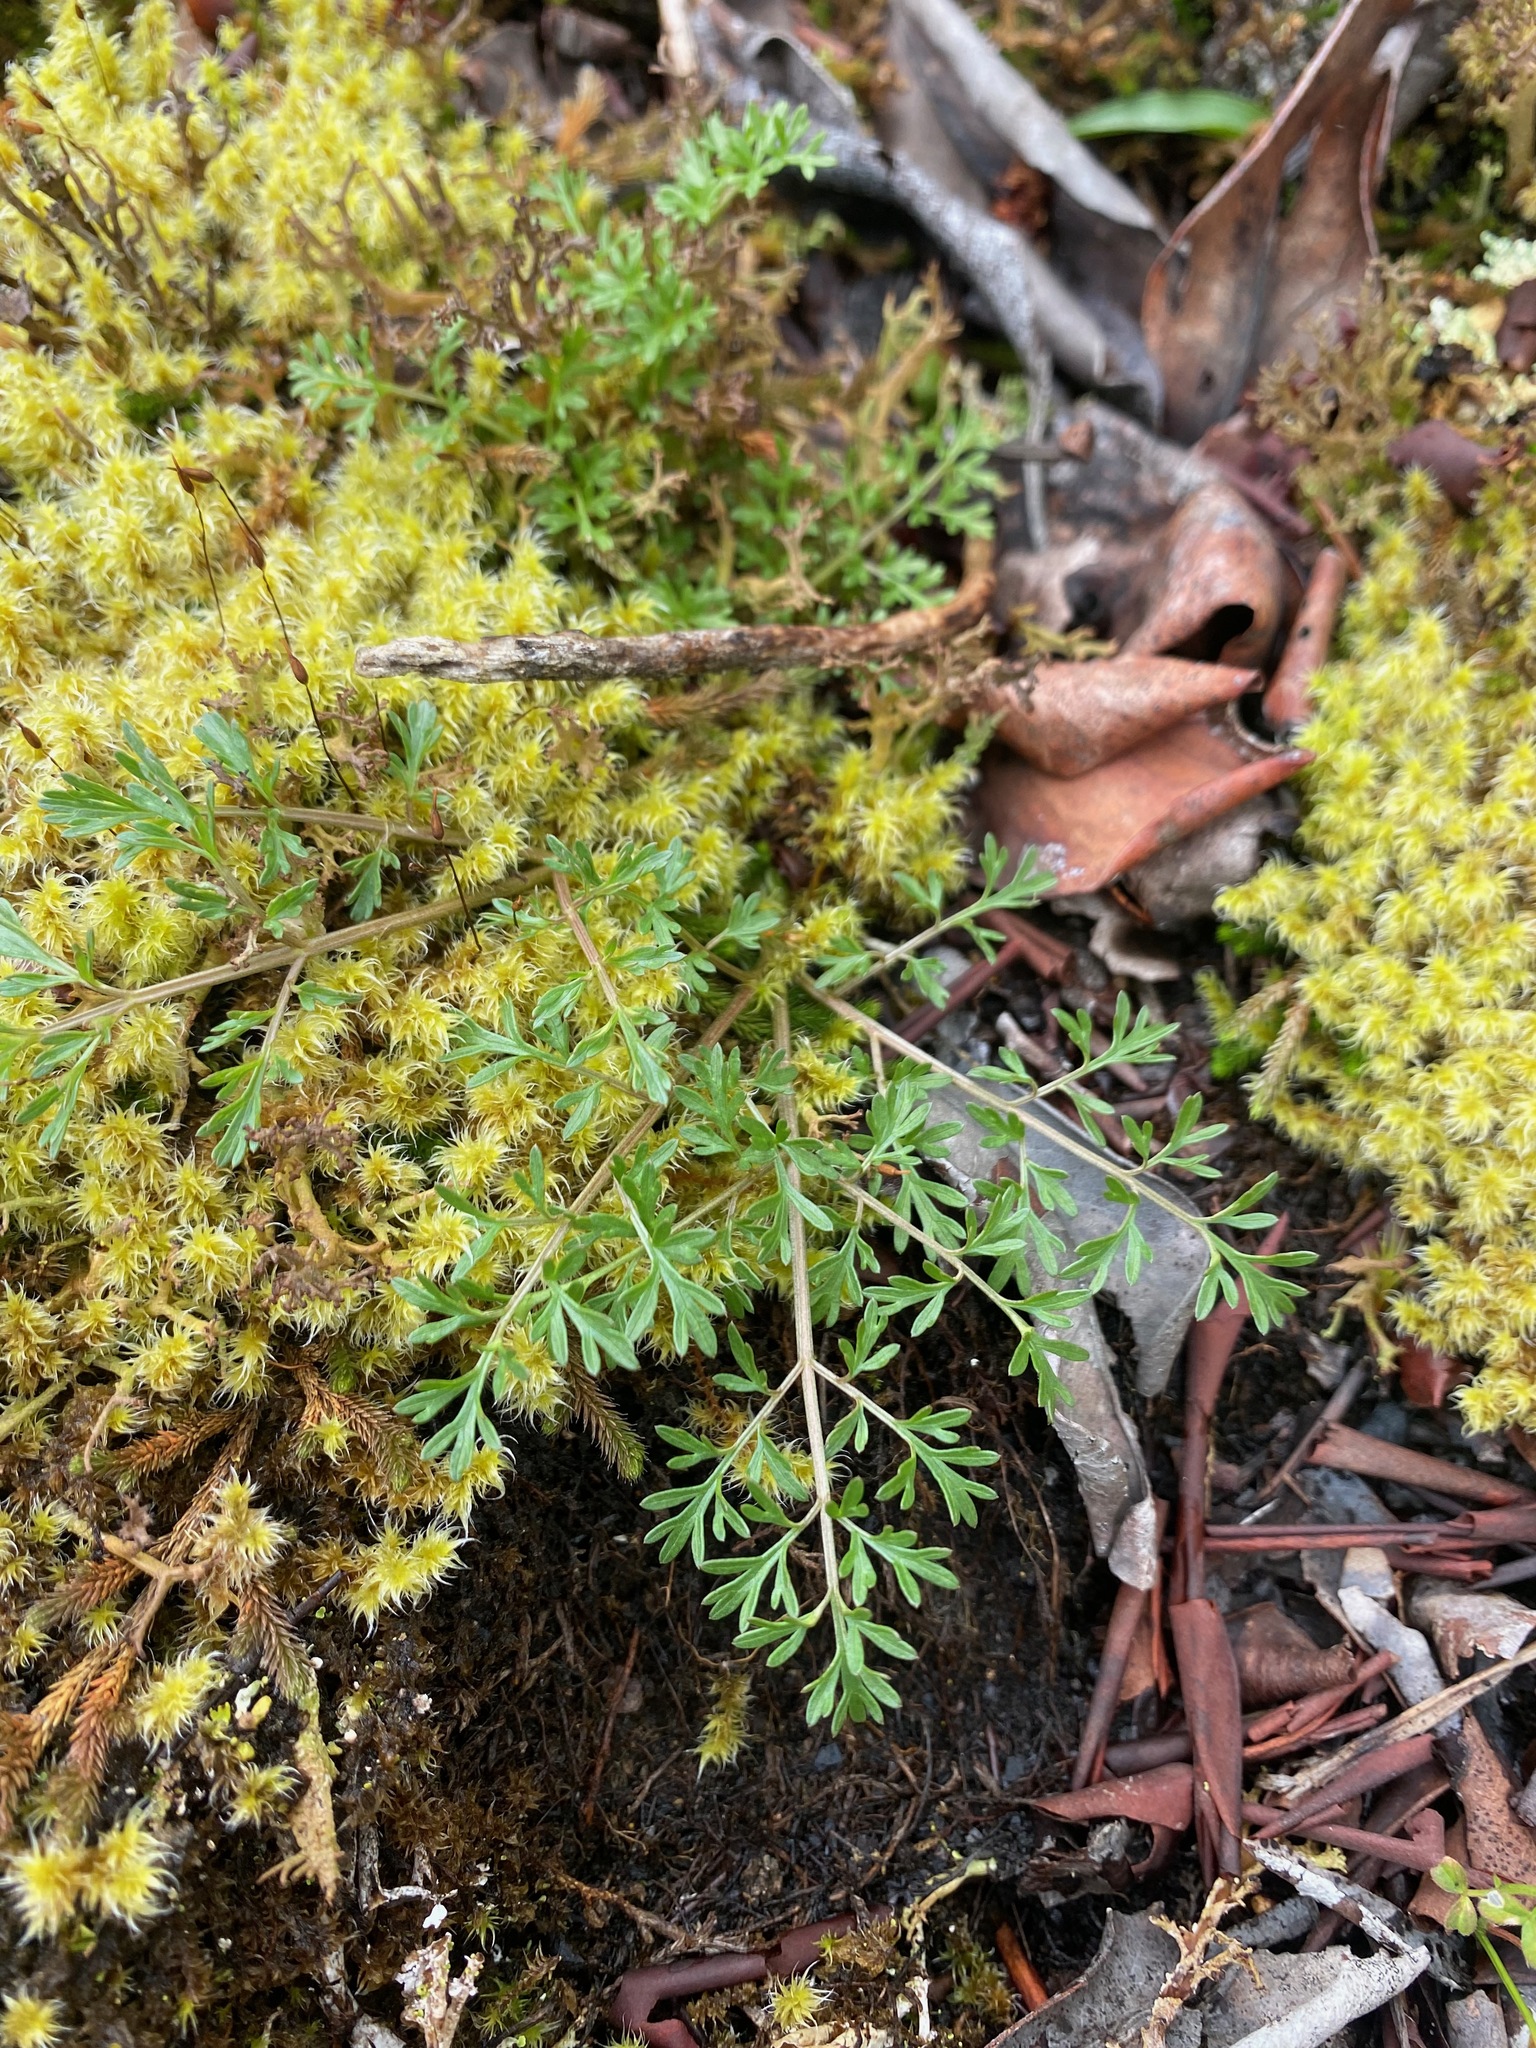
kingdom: Plantae
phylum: Tracheophyta
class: Magnoliopsida
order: Apiales
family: Apiaceae
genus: Lomatium
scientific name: Lomatium utriculatum
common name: Fine-leaf desert-parsley
